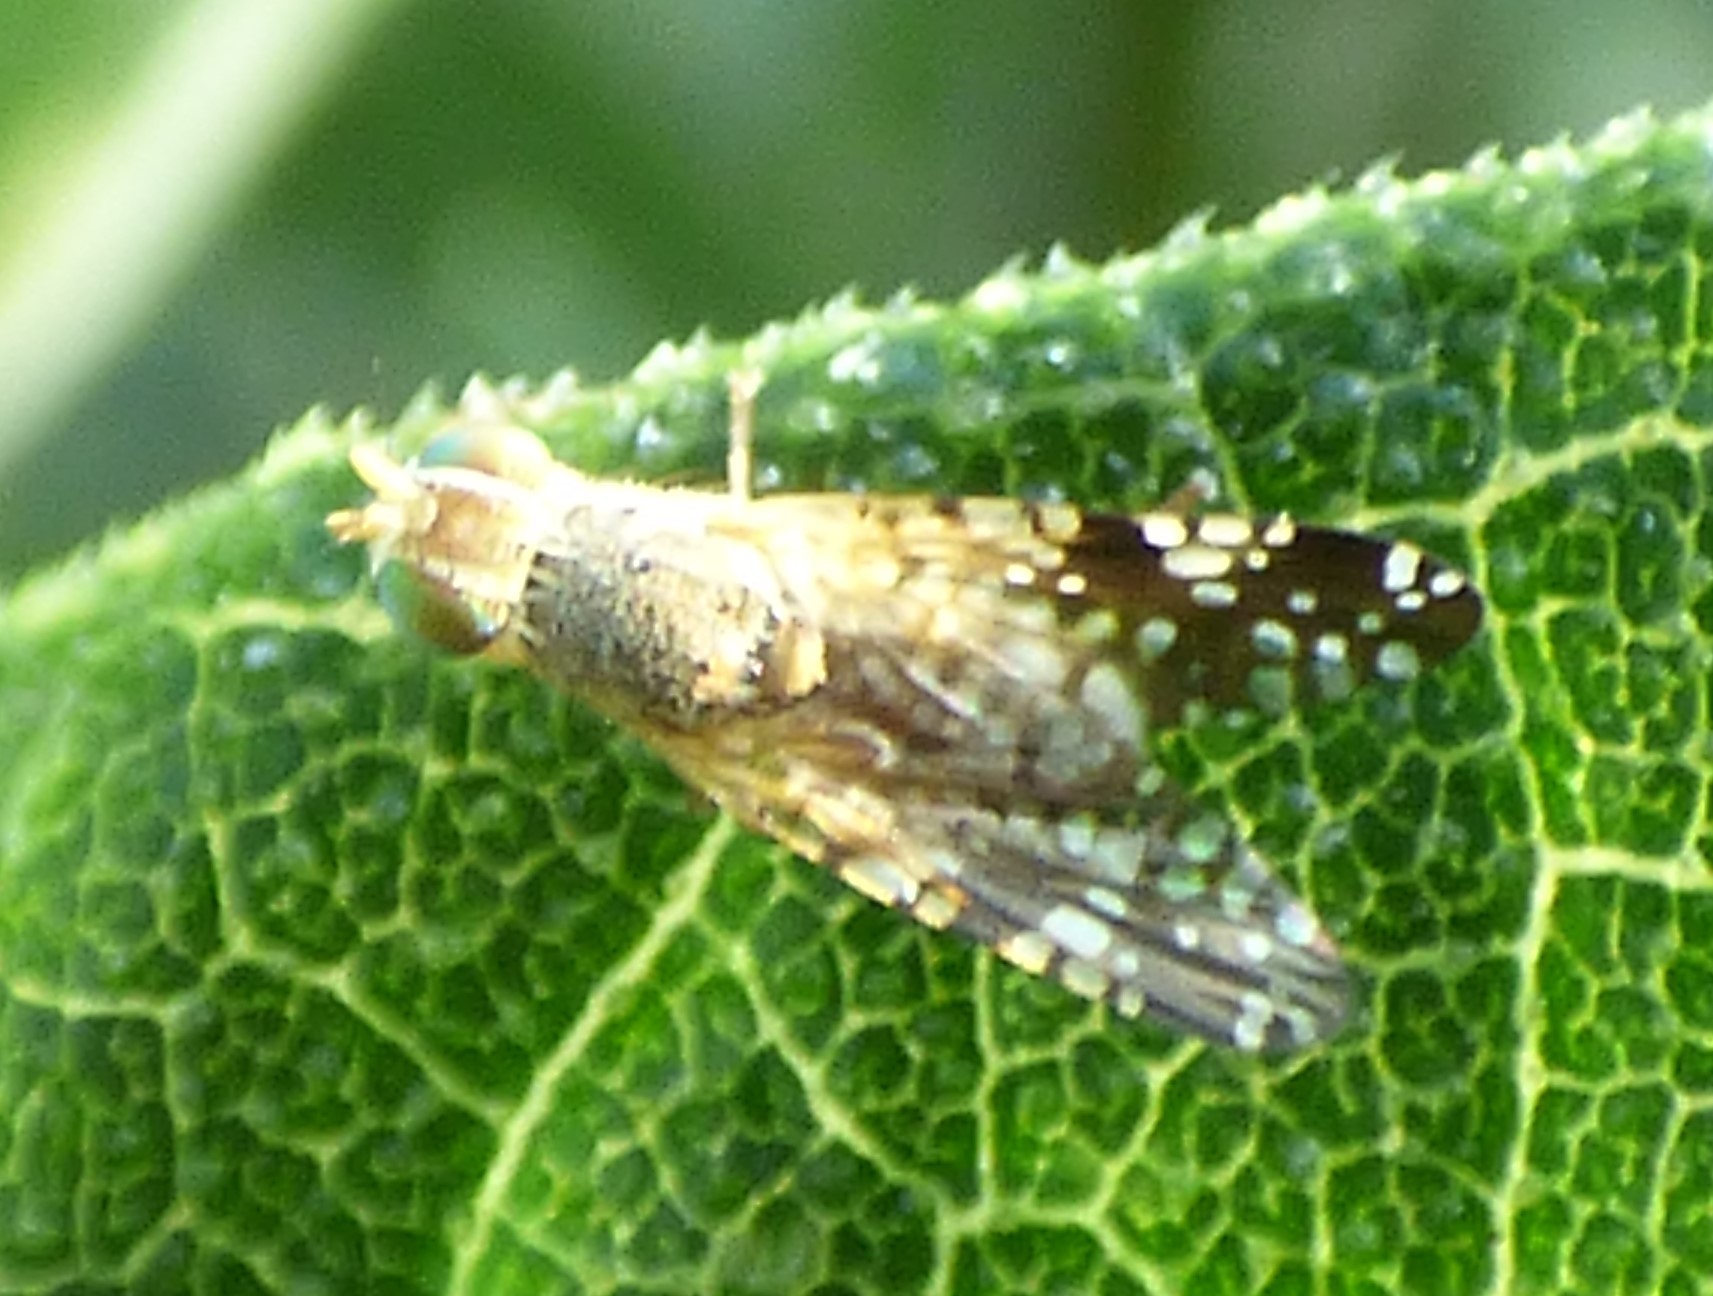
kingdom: Animalia
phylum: Arthropoda
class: Insecta
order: Diptera
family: Tephritidae
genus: Neotephritis
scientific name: Neotephritis finalis
